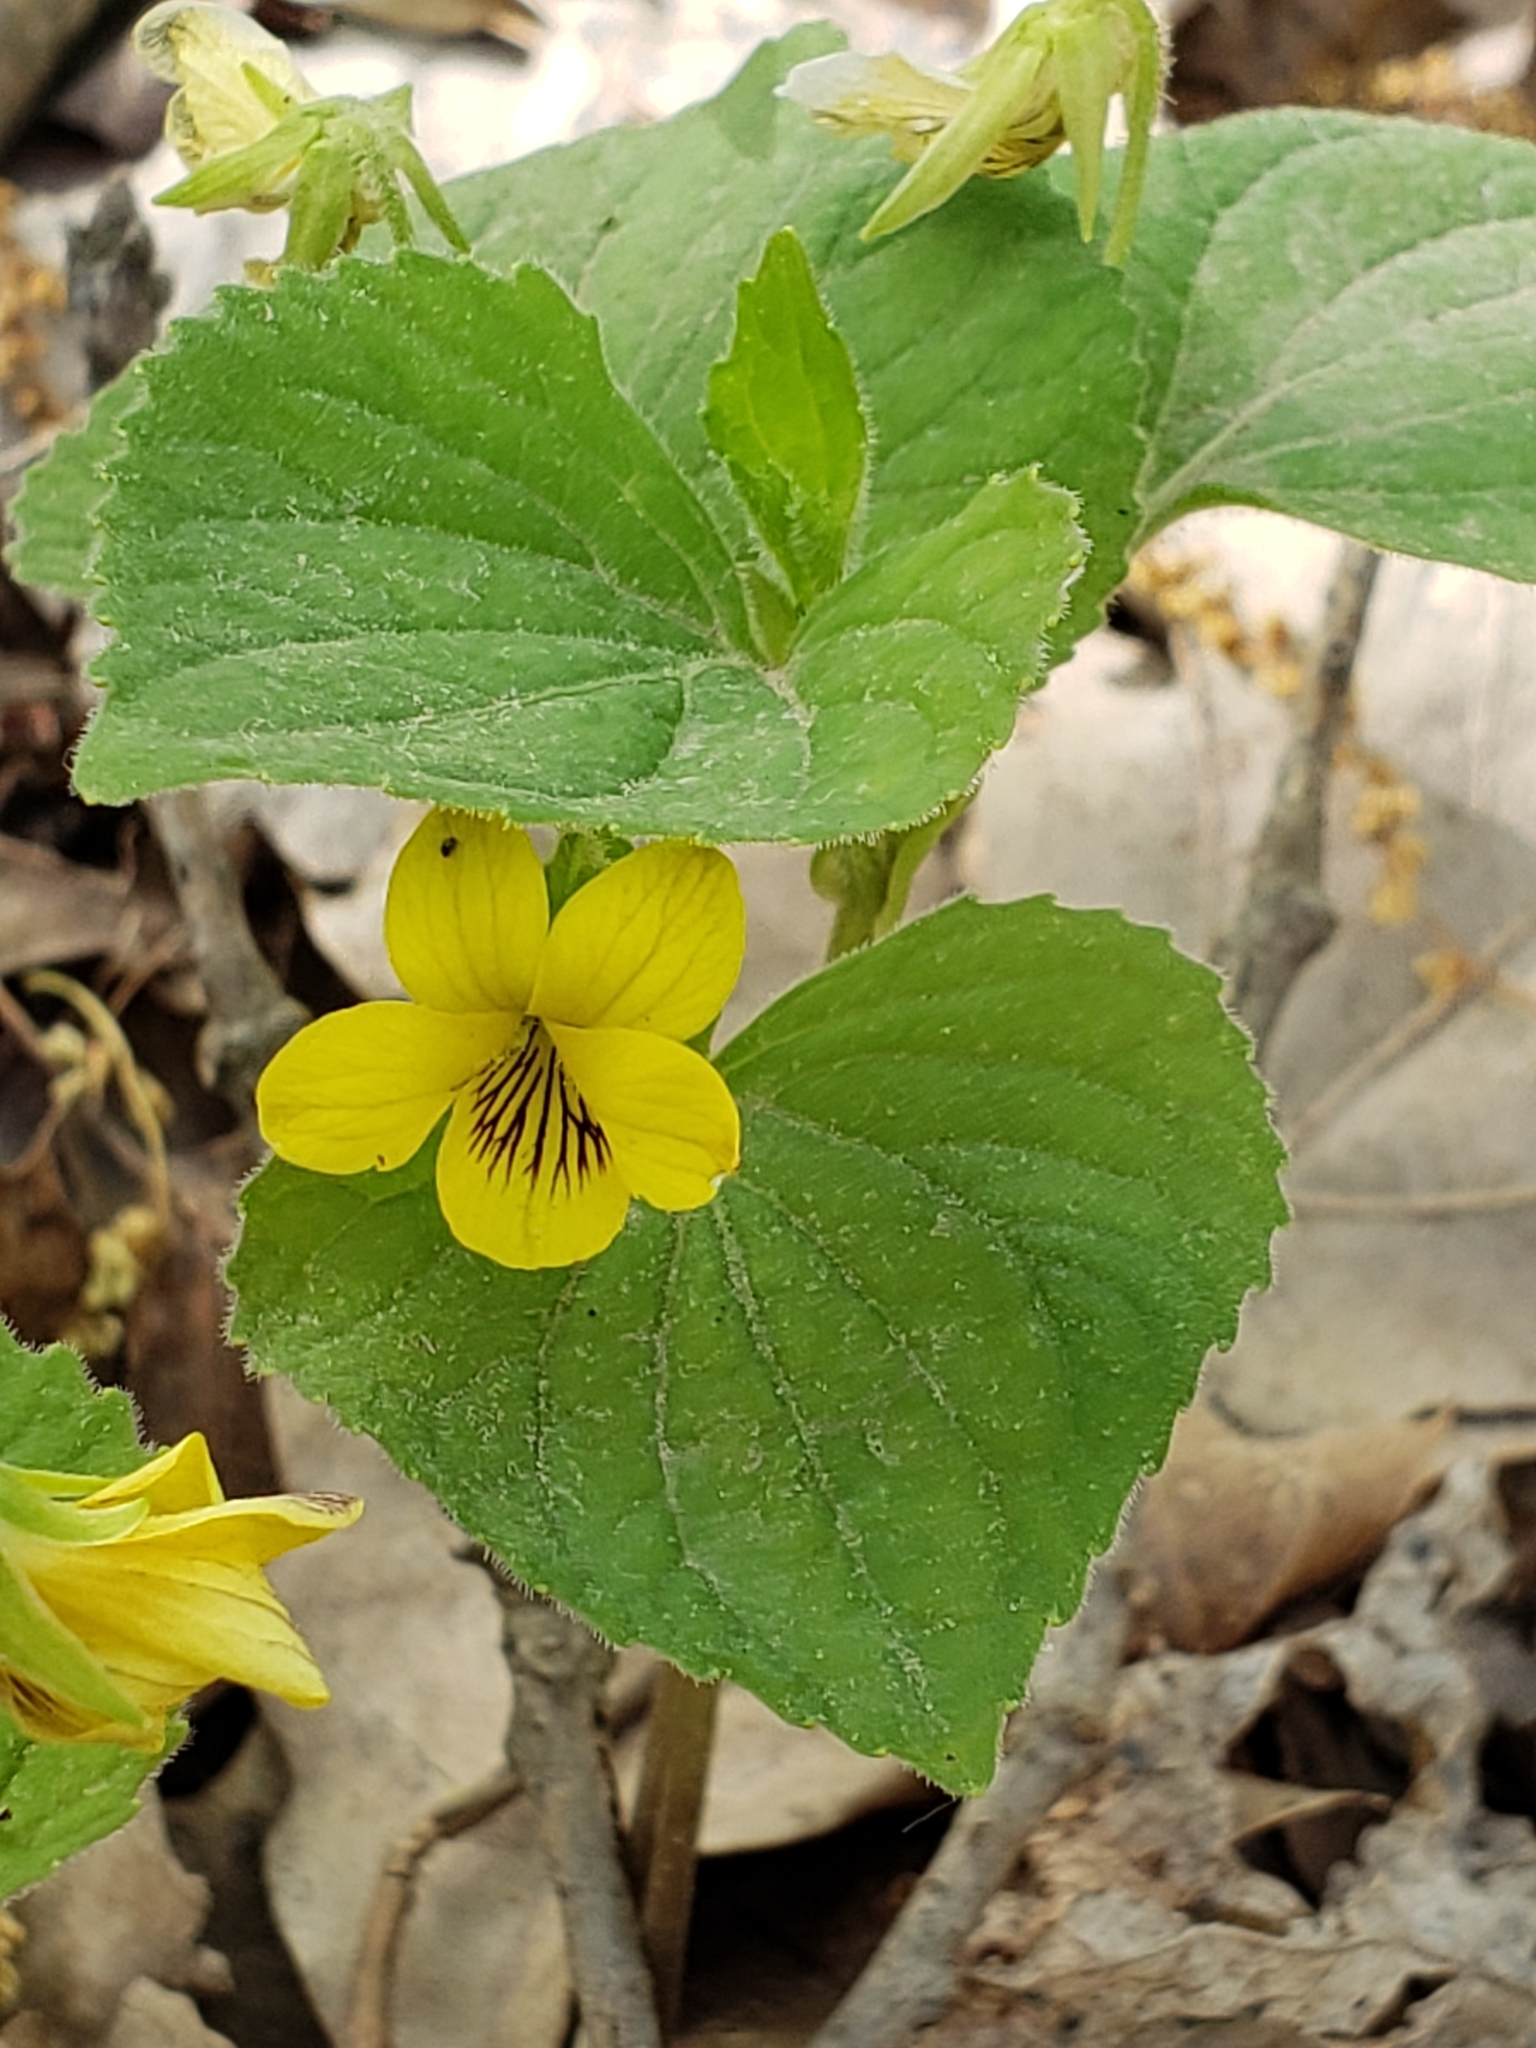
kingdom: Plantae
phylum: Tracheophyta
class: Magnoliopsida
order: Malpighiales
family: Violaceae
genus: Viola
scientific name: Viola eriocarpa
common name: Smooth yellow violet
